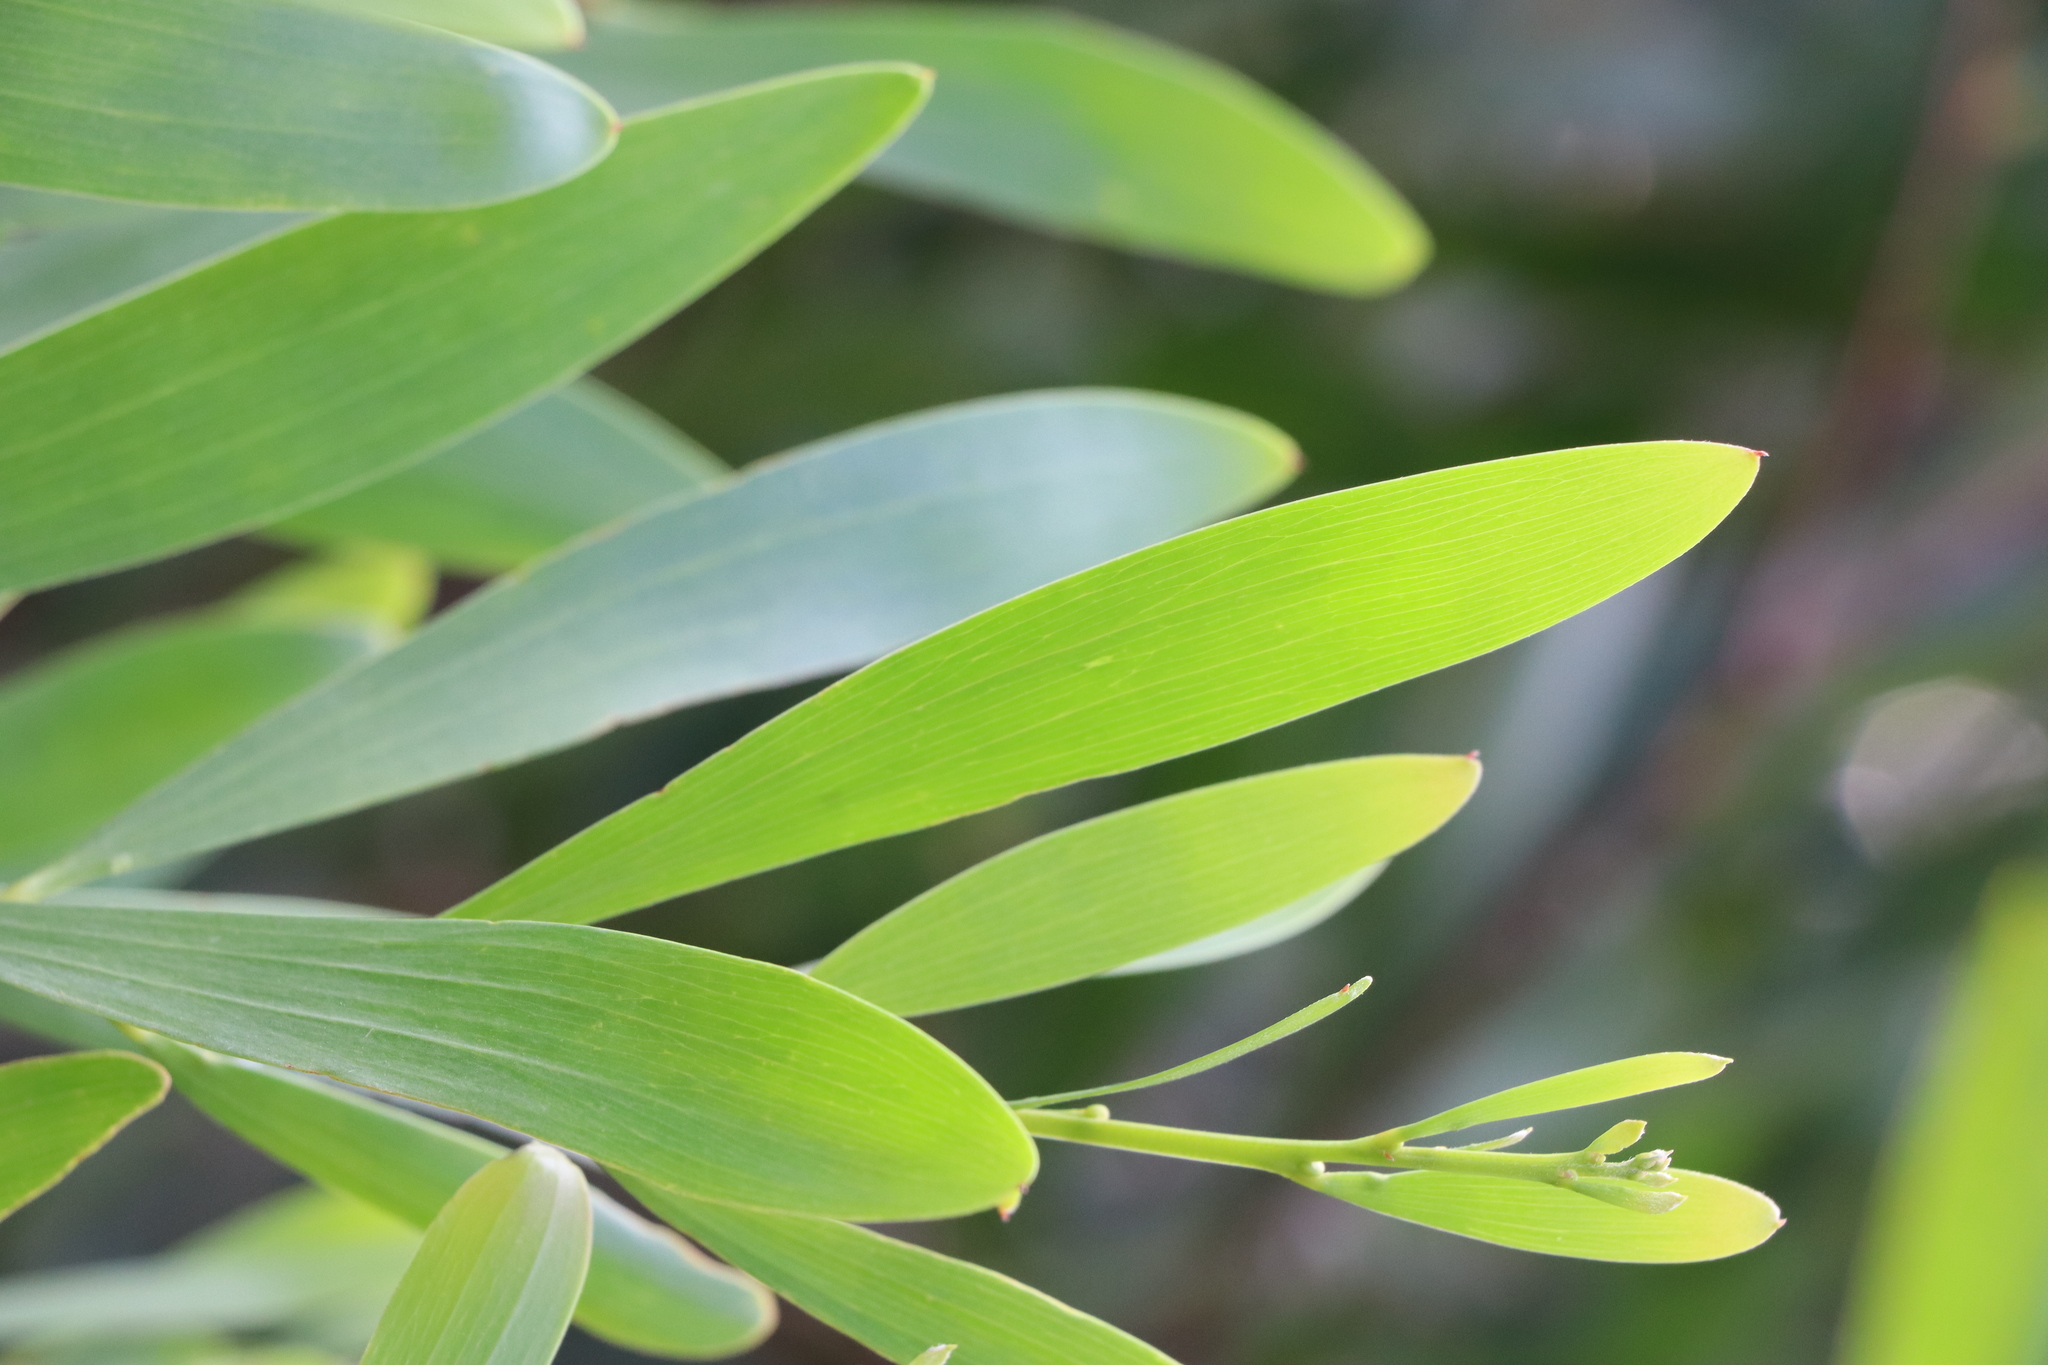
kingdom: Plantae
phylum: Tracheophyta
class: Magnoliopsida
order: Fabales
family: Fabaceae
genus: Acacia
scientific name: Acacia longifolia
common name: Sydney golden wattle
